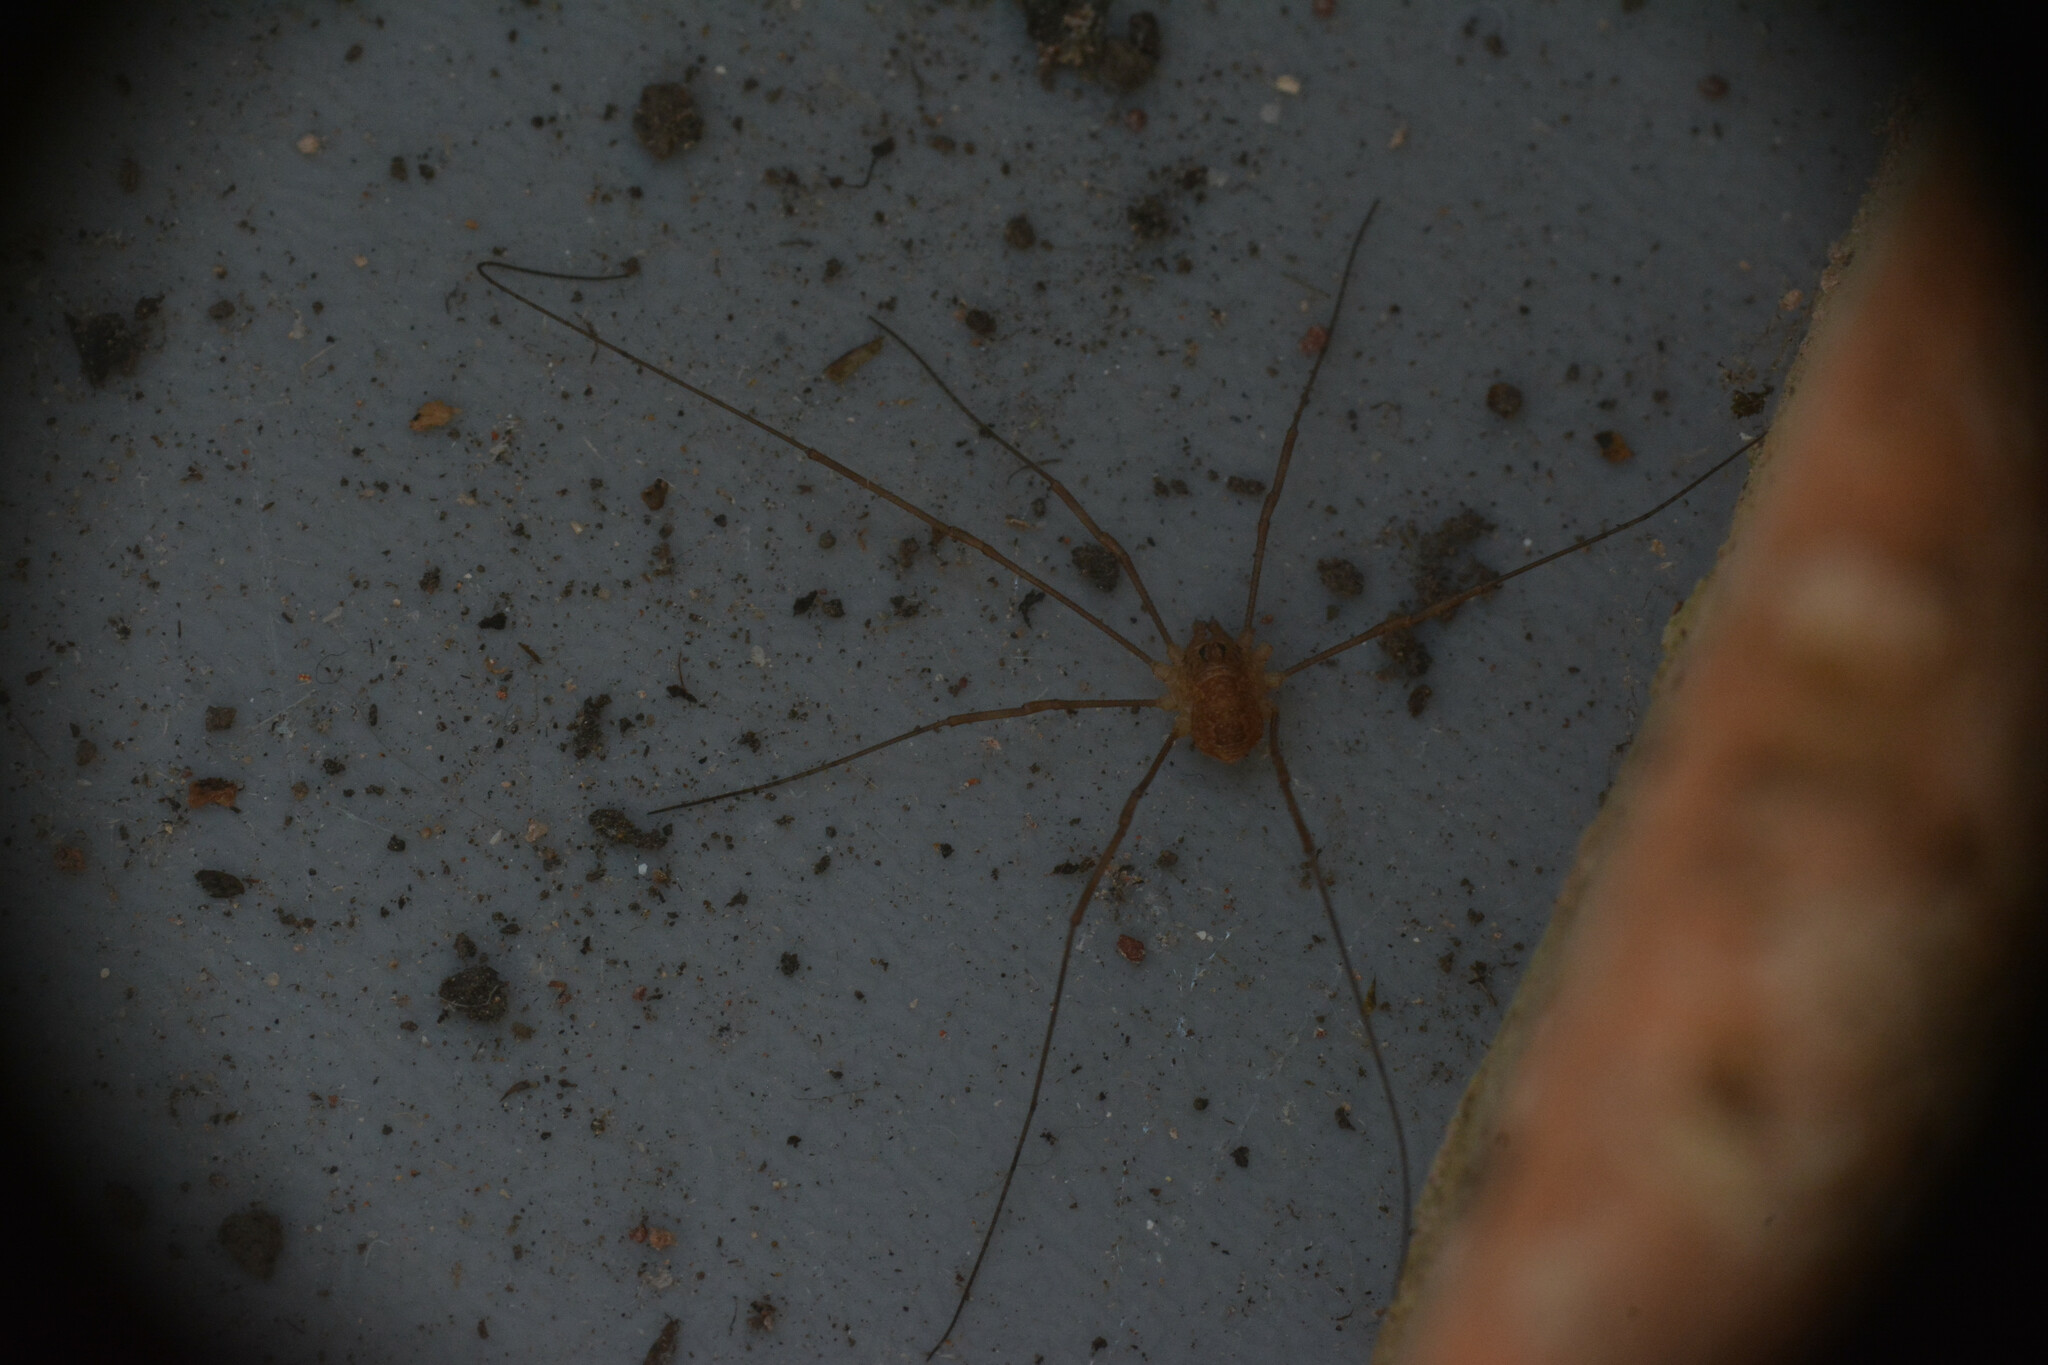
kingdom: Animalia
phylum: Arthropoda
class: Arachnida
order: Opiliones
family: Phalangiidae
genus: Rilaena
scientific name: Rilaena triangularis
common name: Spring harvestman
